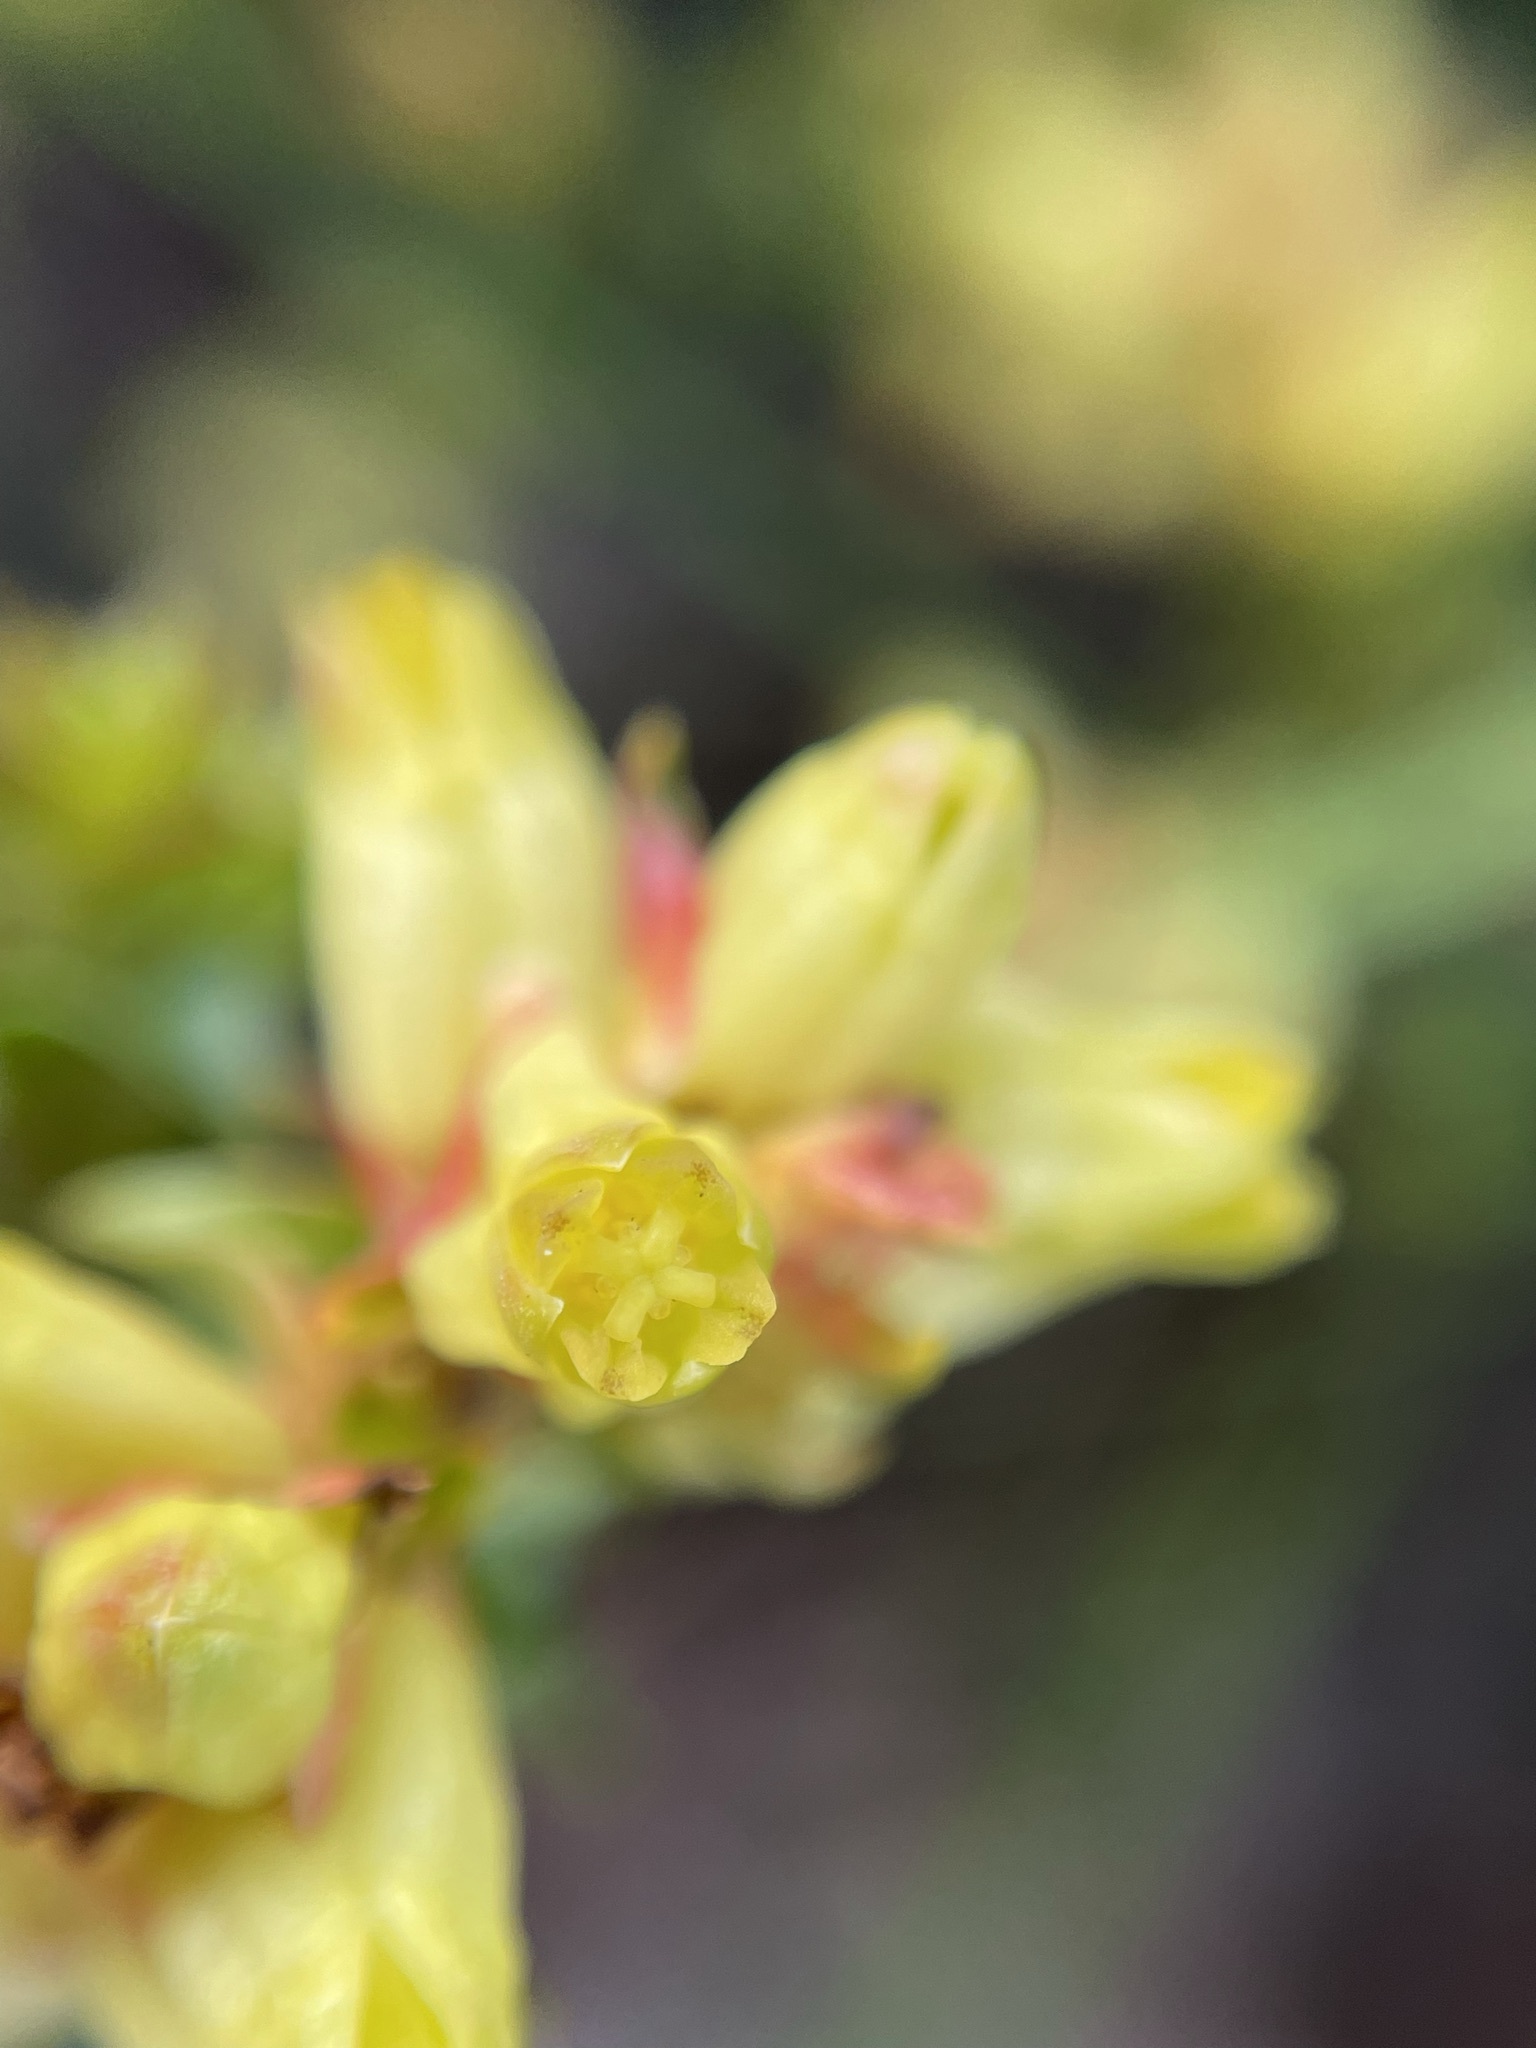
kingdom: Plantae
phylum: Tracheophyta
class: Magnoliopsida
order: Myrtales
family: Penaeaceae
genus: Penaea
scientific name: Penaea mucronata
